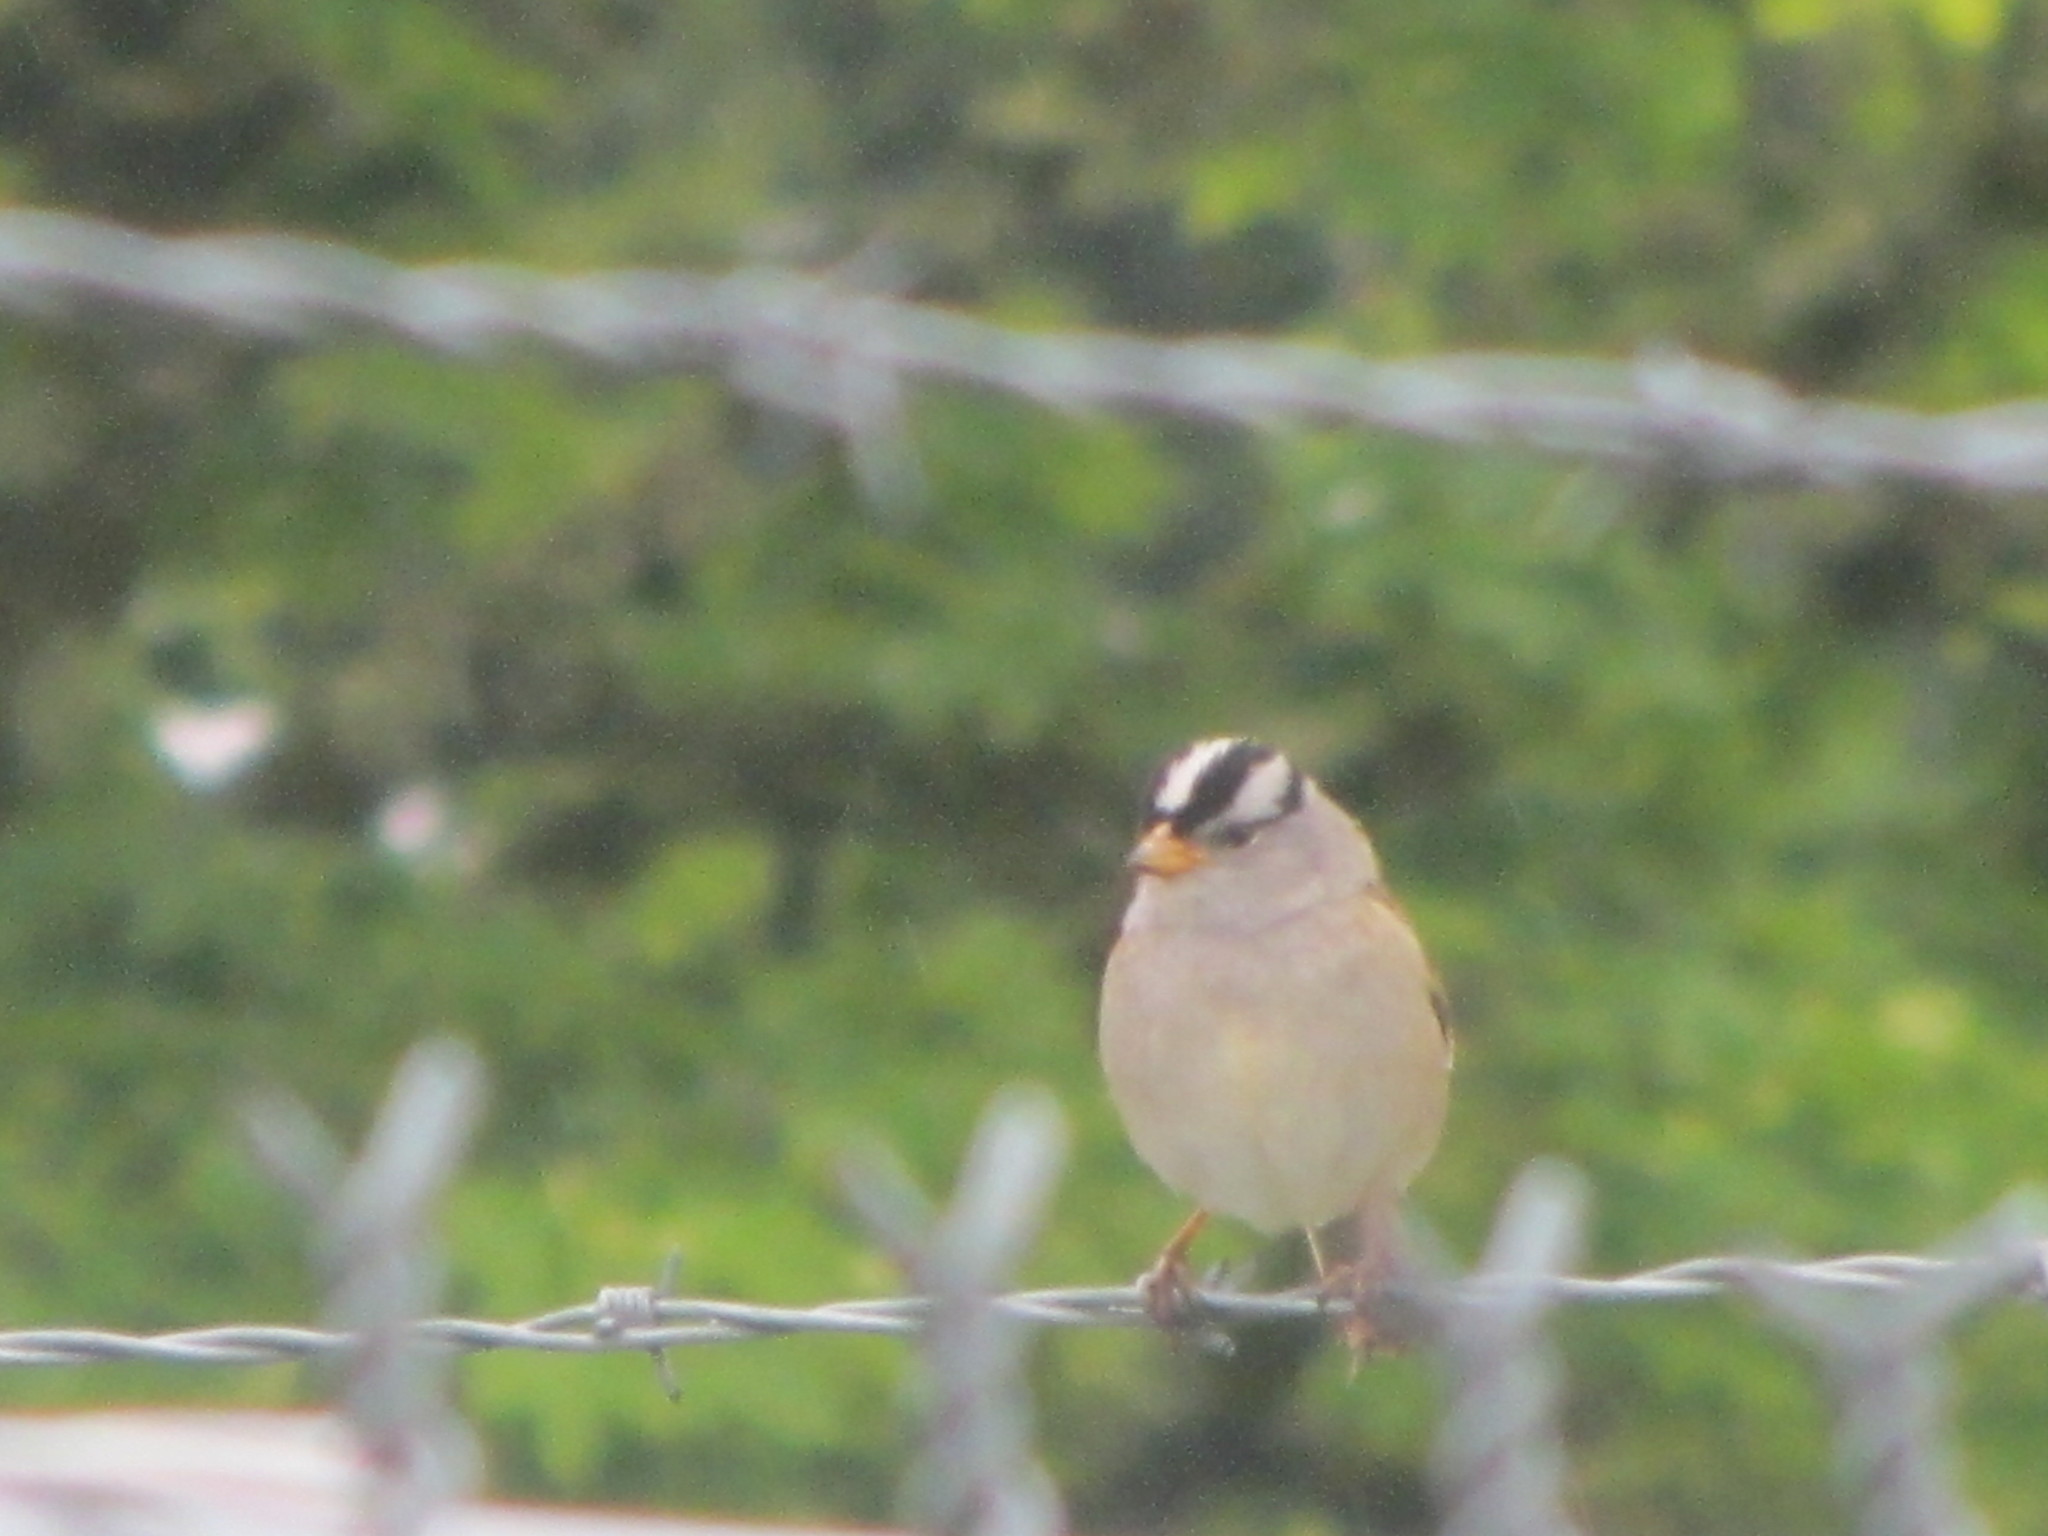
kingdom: Animalia
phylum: Chordata
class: Aves
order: Passeriformes
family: Passerellidae
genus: Zonotrichia
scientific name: Zonotrichia leucophrys
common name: White-crowned sparrow
